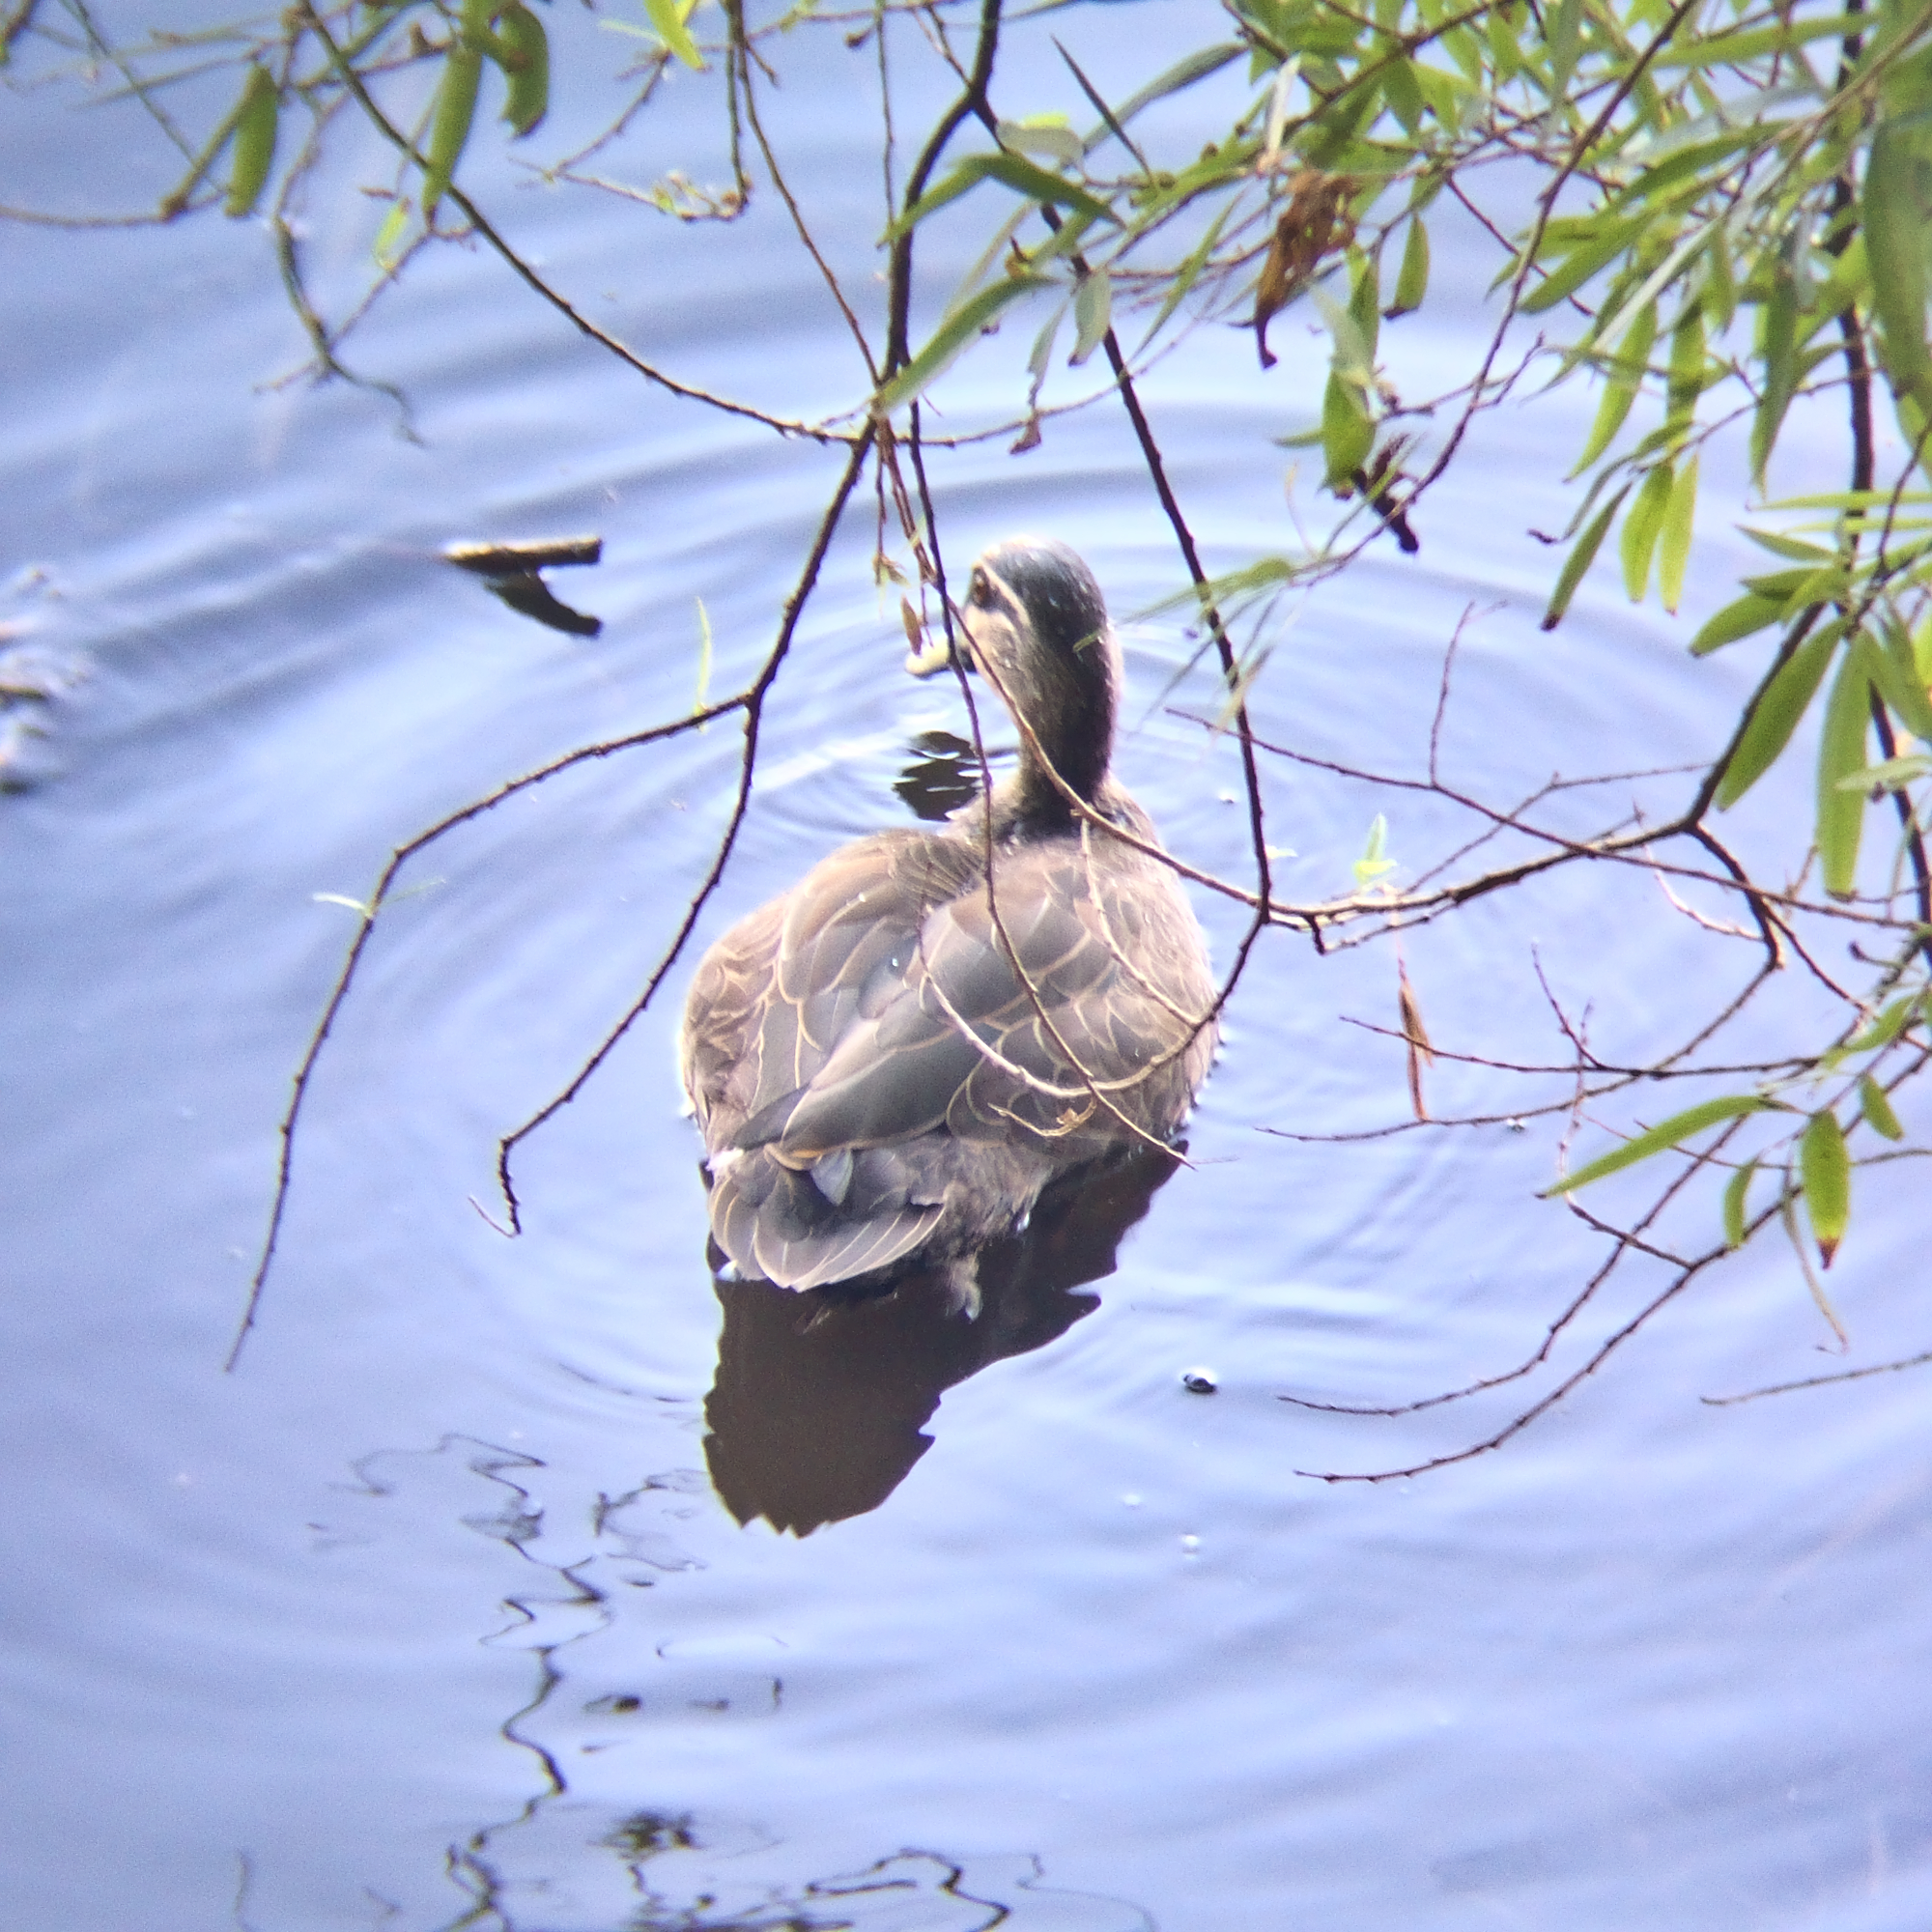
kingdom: Animalia
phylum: Chordata
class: Aves
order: Anseriformes
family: Anatidae
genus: Anas
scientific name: Anas
